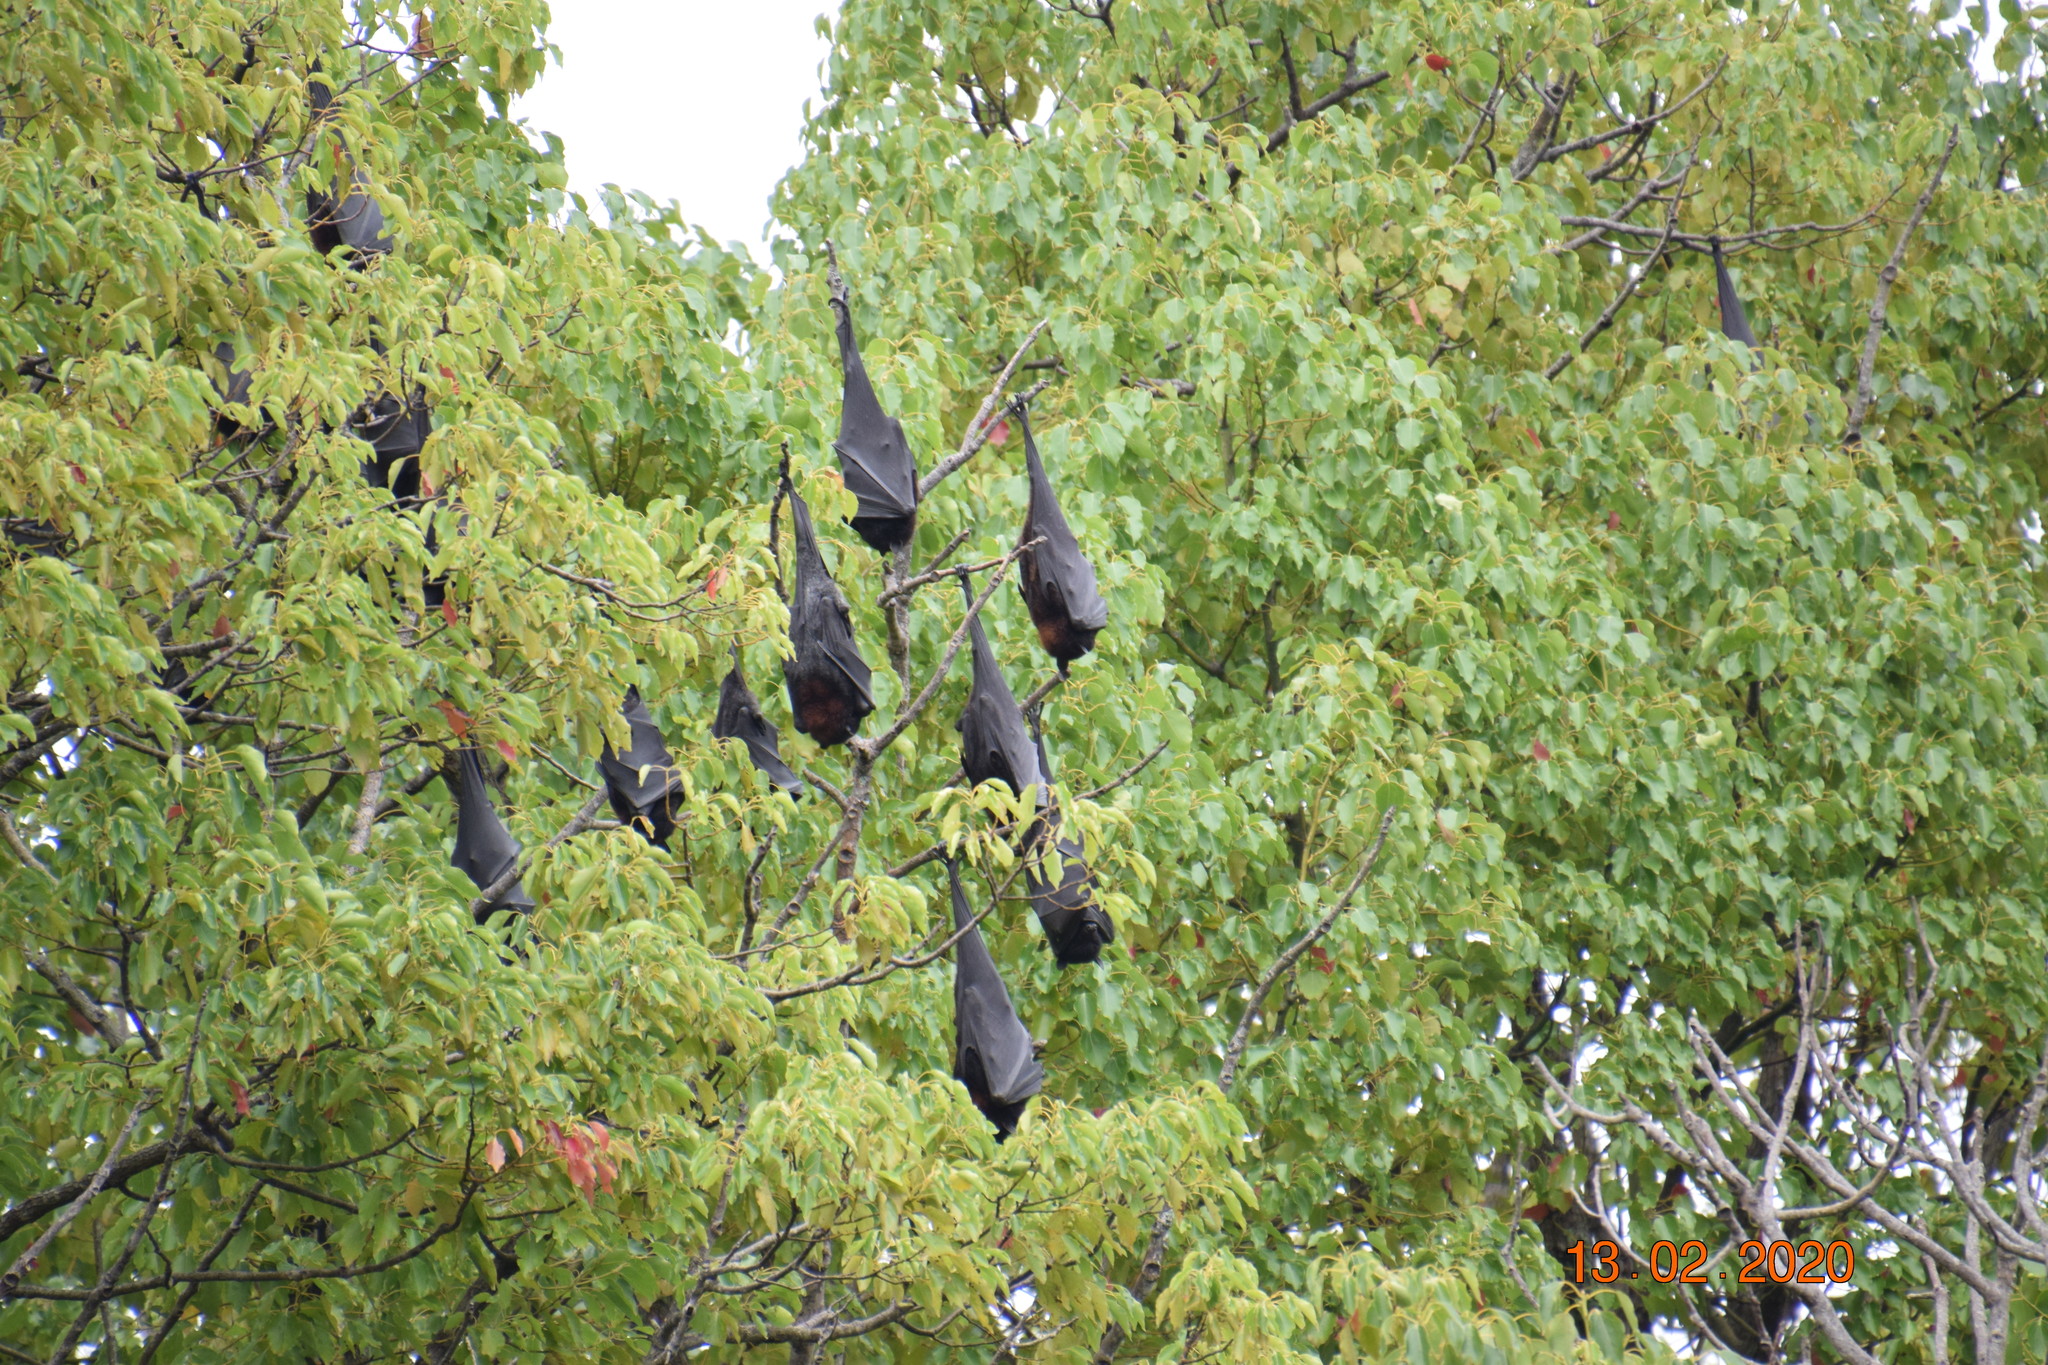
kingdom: Animalia
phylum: Chordata
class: Mammalia
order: Chiroptera
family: Pteropodidae
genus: Pteropus
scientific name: Pteropus alecto
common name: Black flying fox
